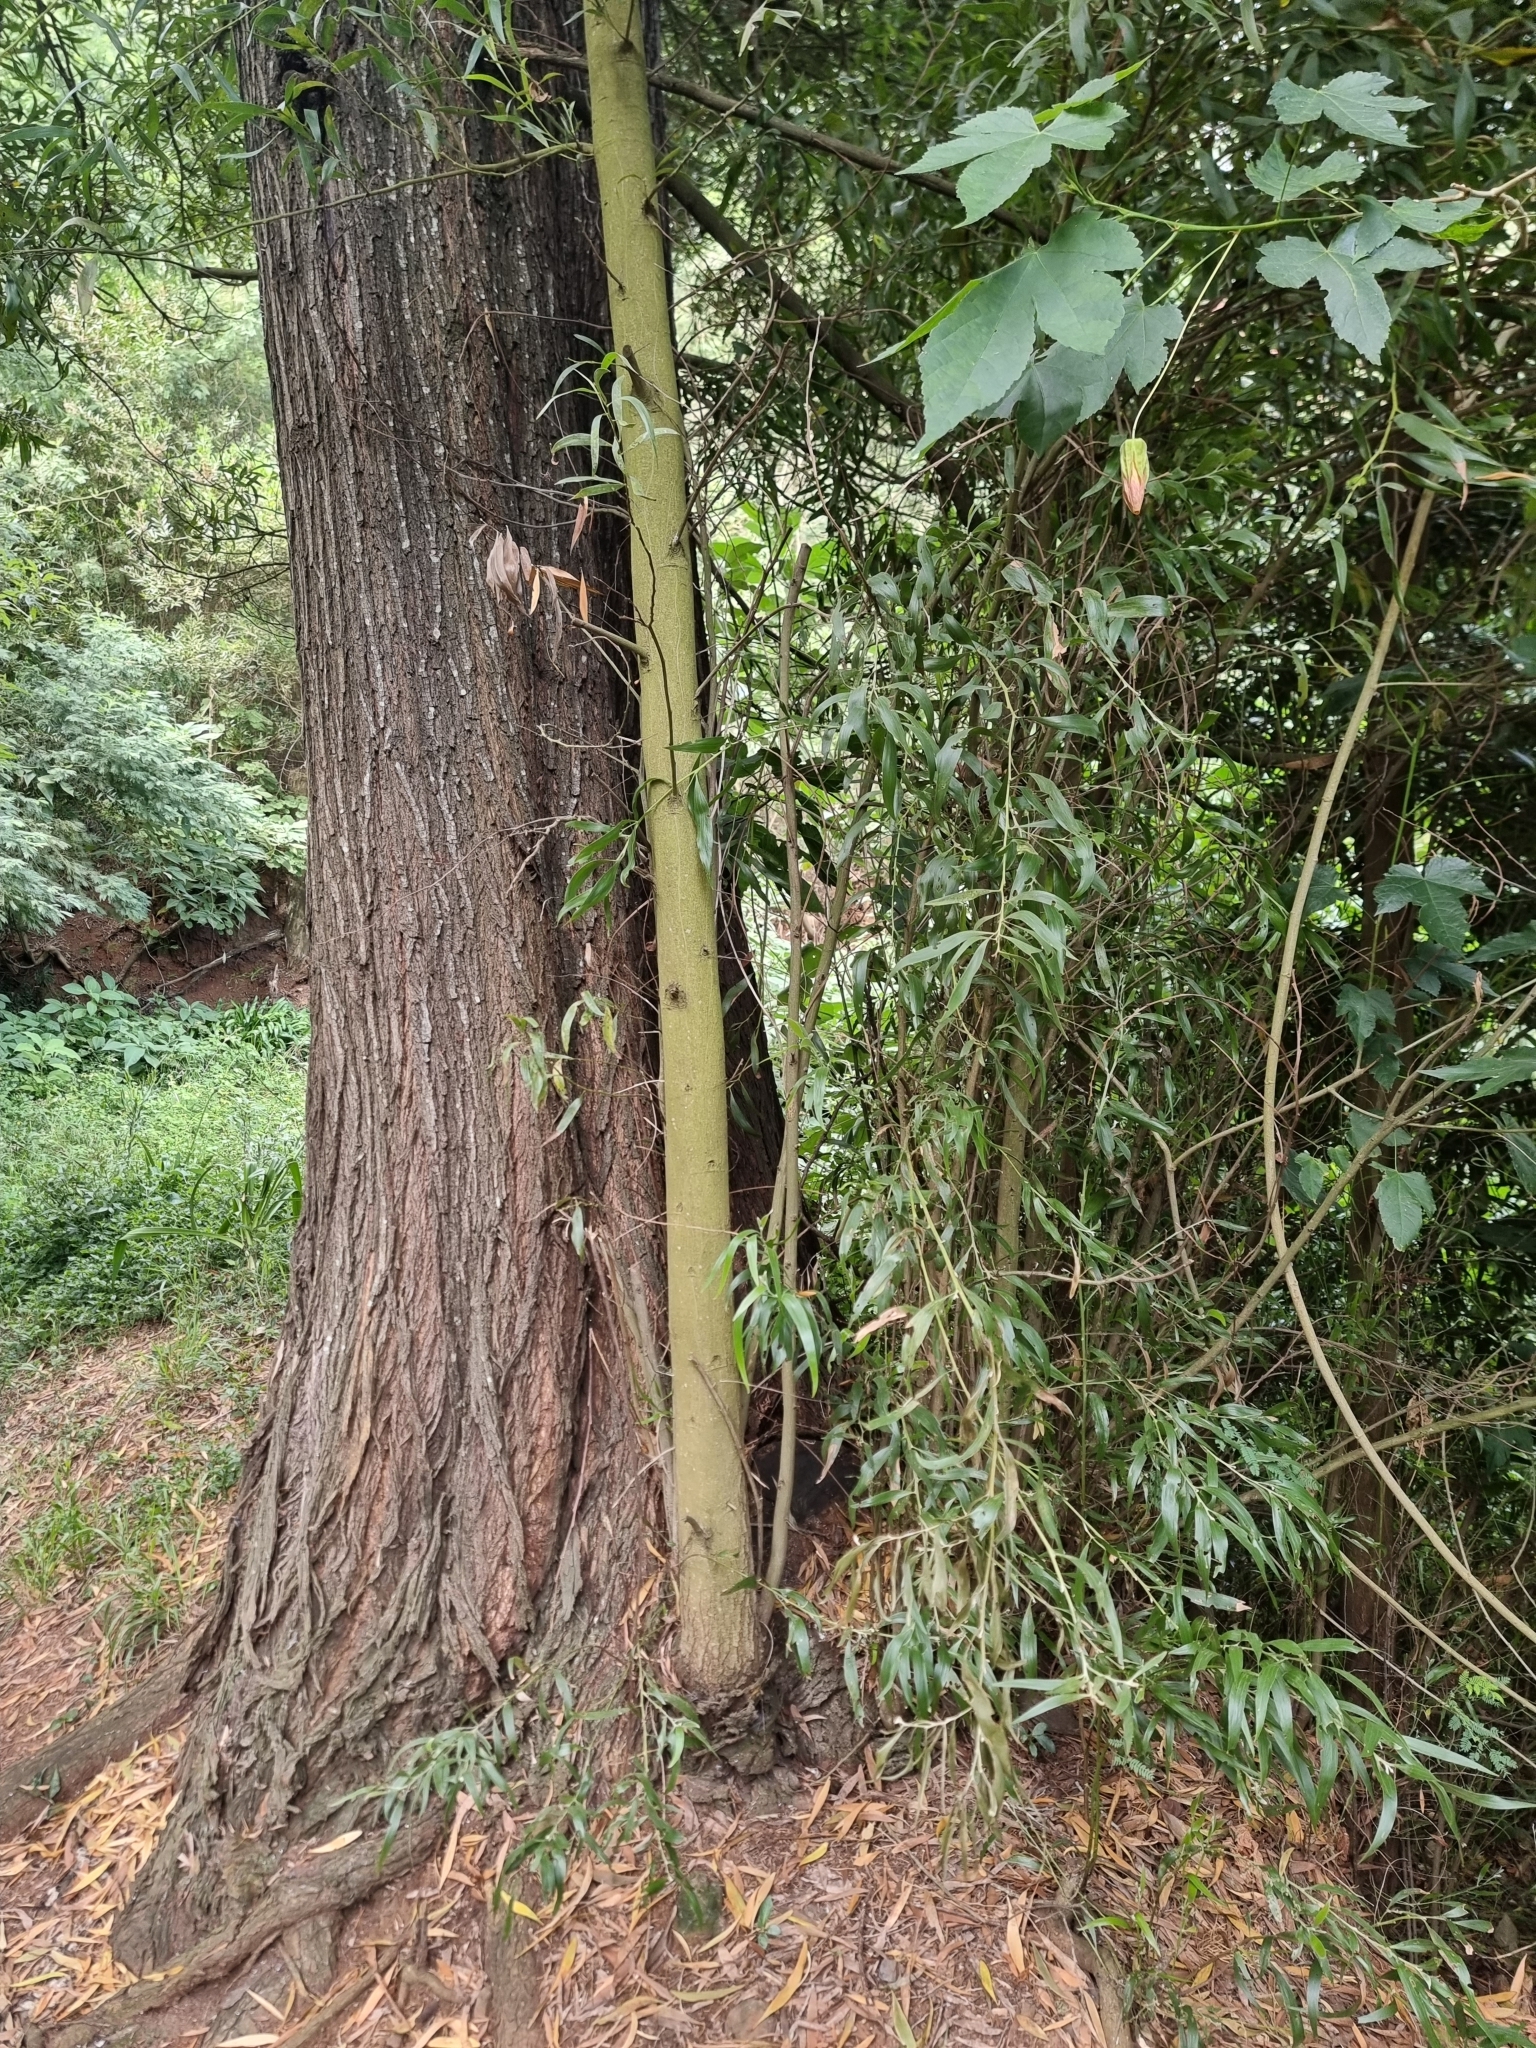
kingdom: Plantae
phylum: Tracheophyta
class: Magnoliopsida
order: Fabales
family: Fabaceae
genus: Acacia
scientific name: Acacia melanoxylon
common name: Blackwood
